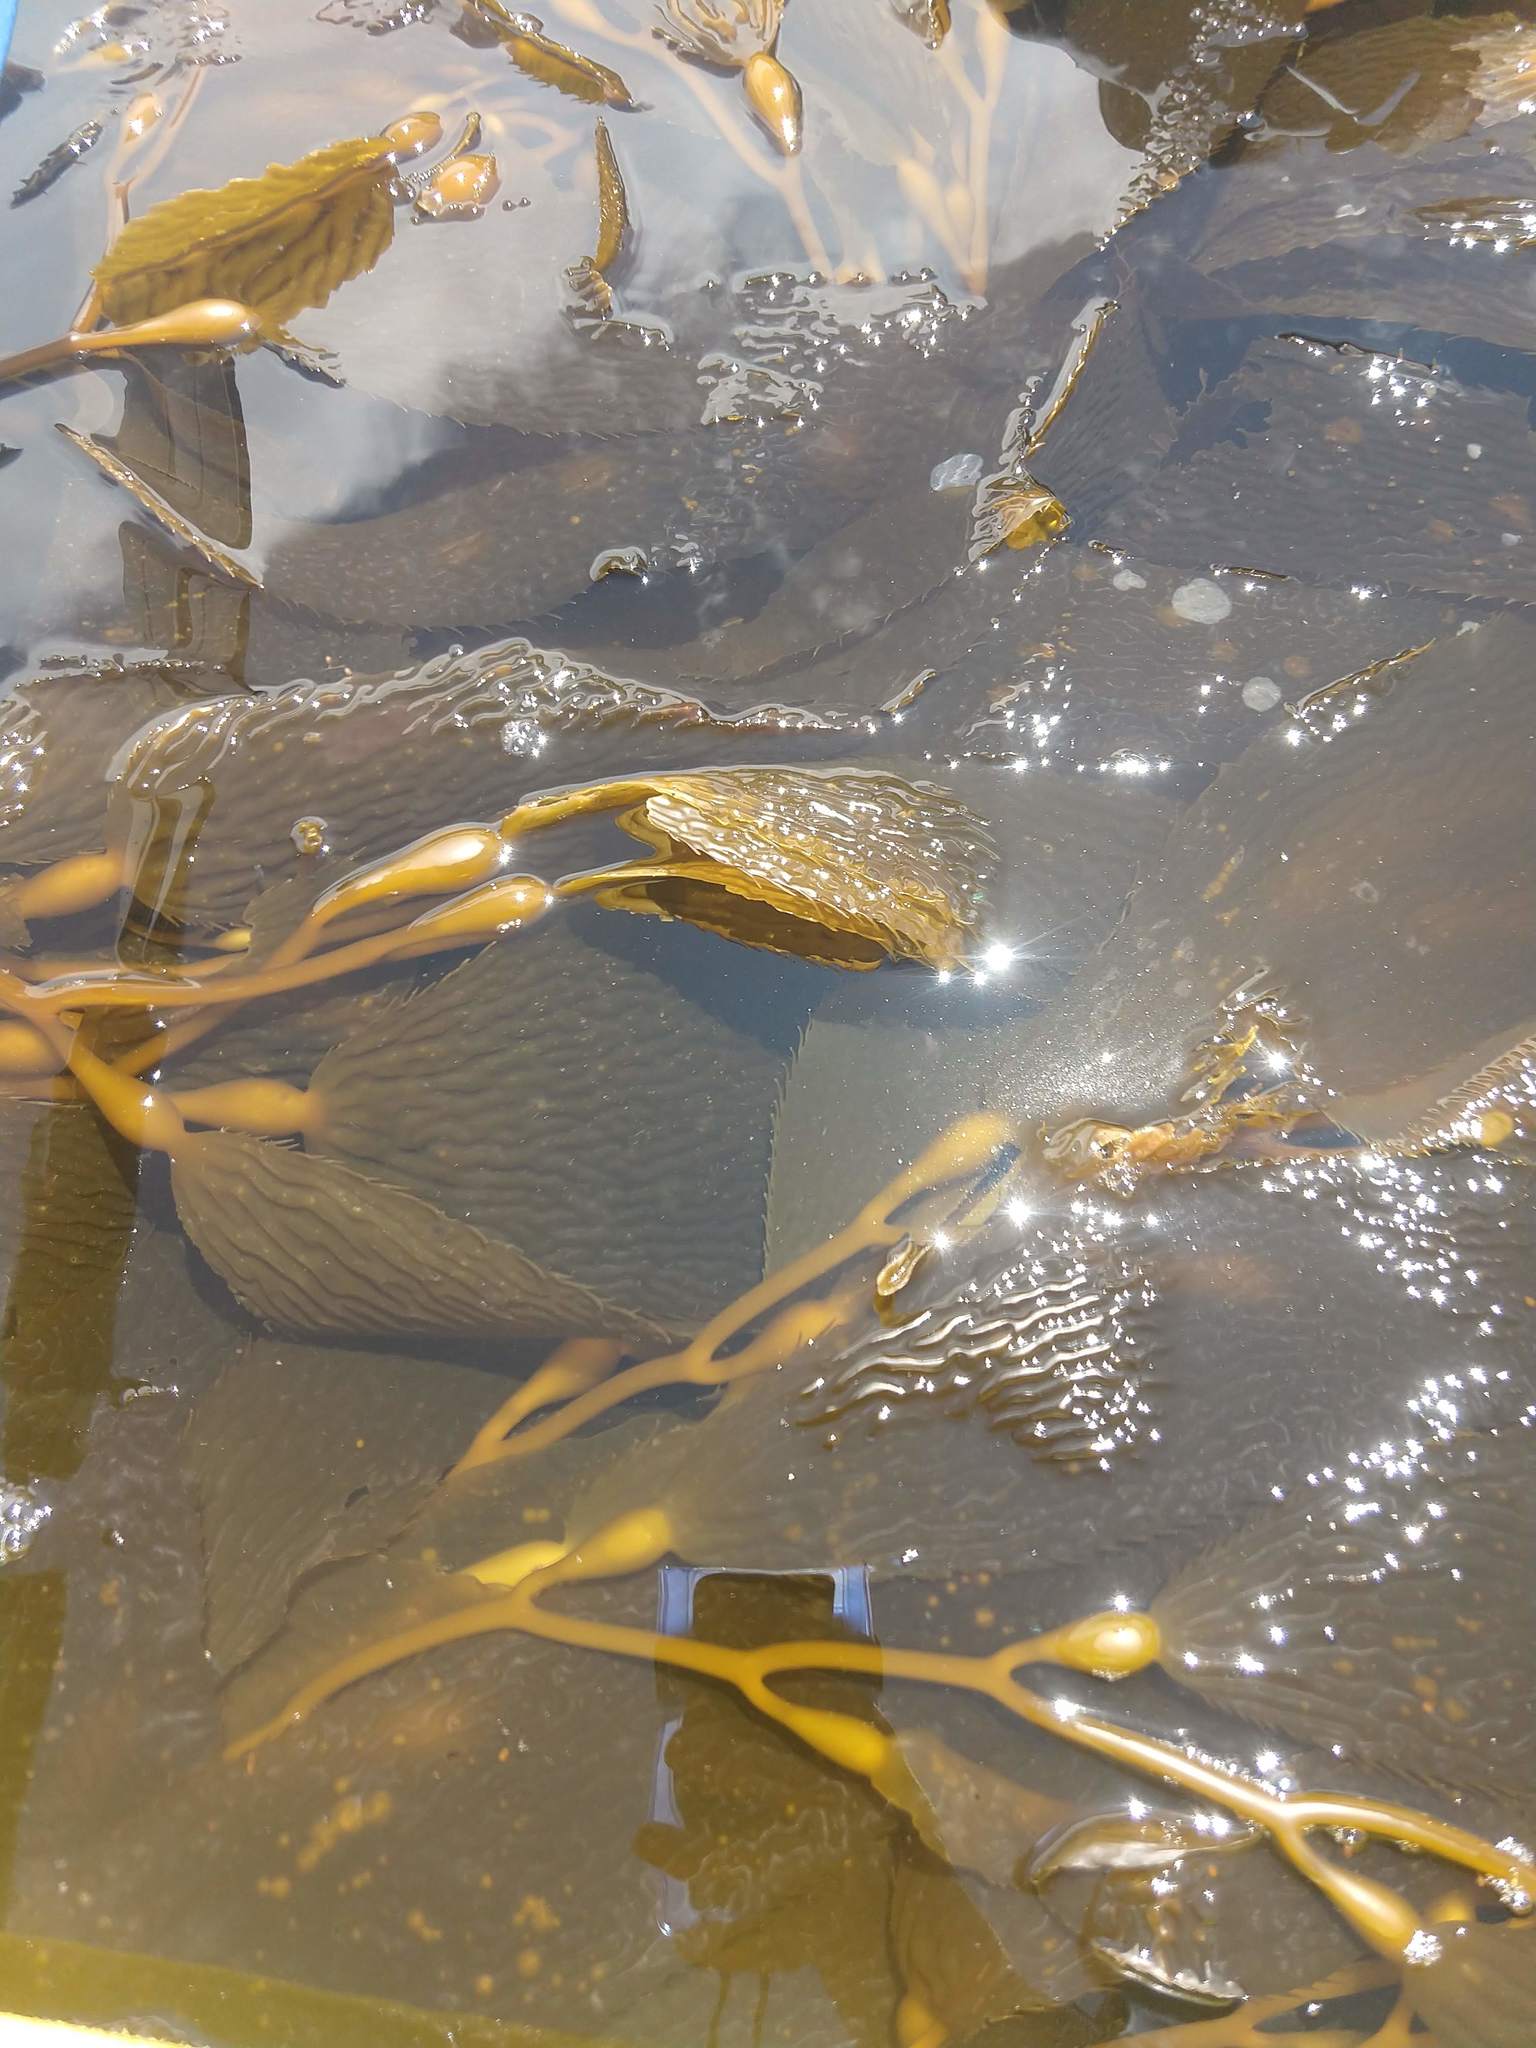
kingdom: Chromista
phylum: Ochrophyta
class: Phaeophyceae
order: Laminariales
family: Laminariaceae
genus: Macrocystis
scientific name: Macrocystis pyrifera
